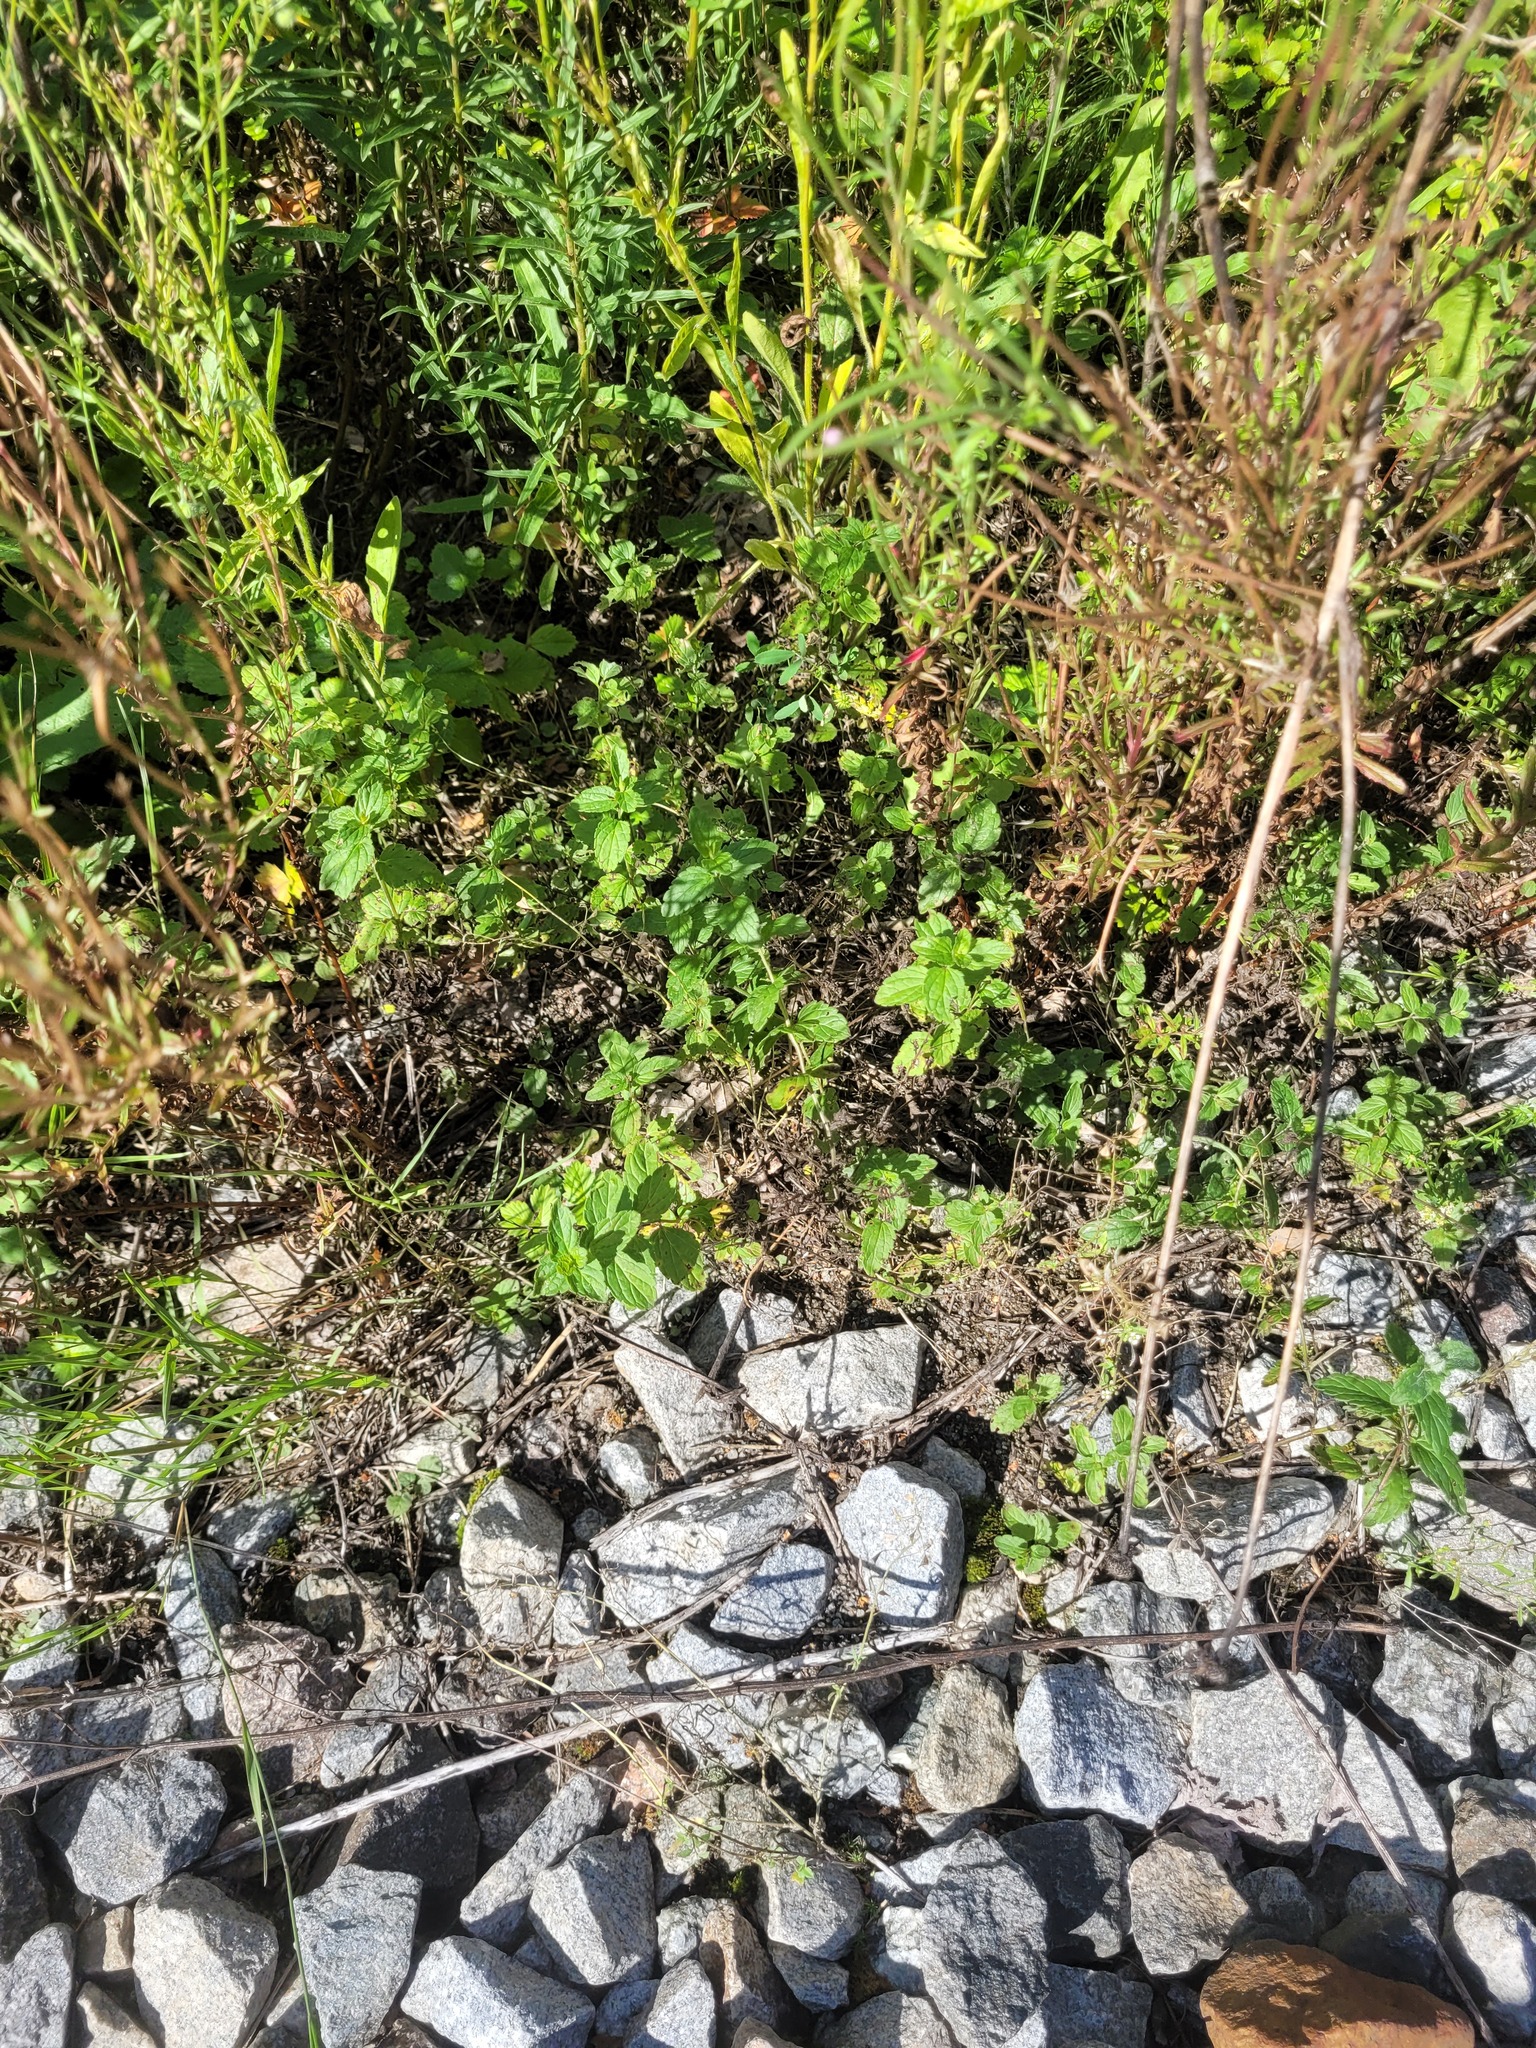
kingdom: Plantae
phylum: Tracheophyta
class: Magnoliopsida
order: Lamiales
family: Plantaginaceae
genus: Veronica
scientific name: Veronica chamaedrys
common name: Germander speedwell
